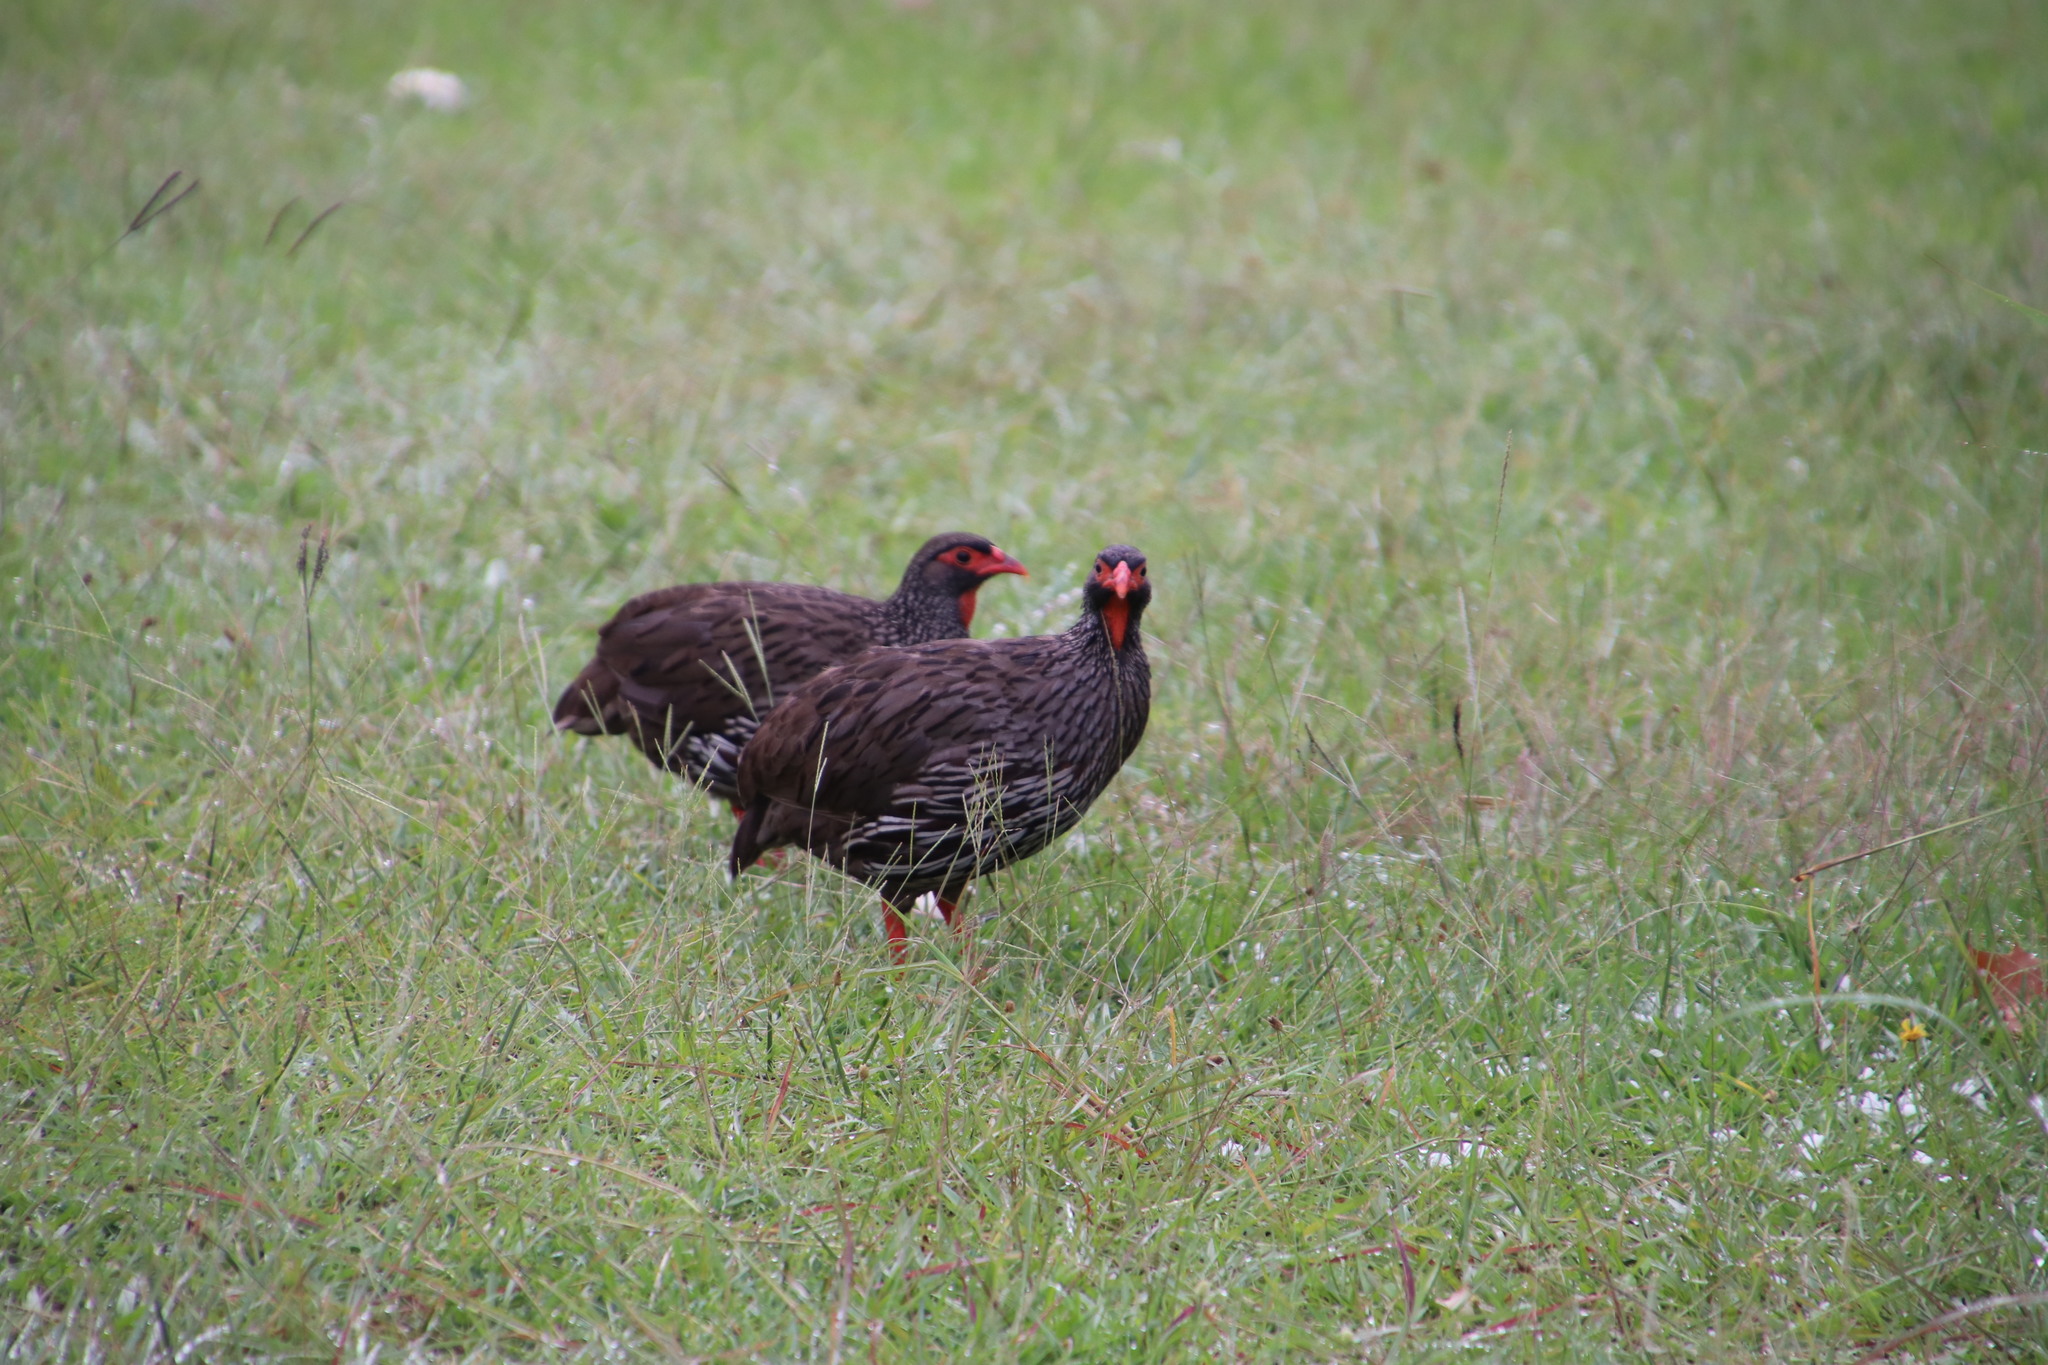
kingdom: Animalia
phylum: Chordata
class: Aves
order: Galliformes
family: Phasianidae
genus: Pternistis
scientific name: Pternistis afer
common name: Red-necked spurfowl
